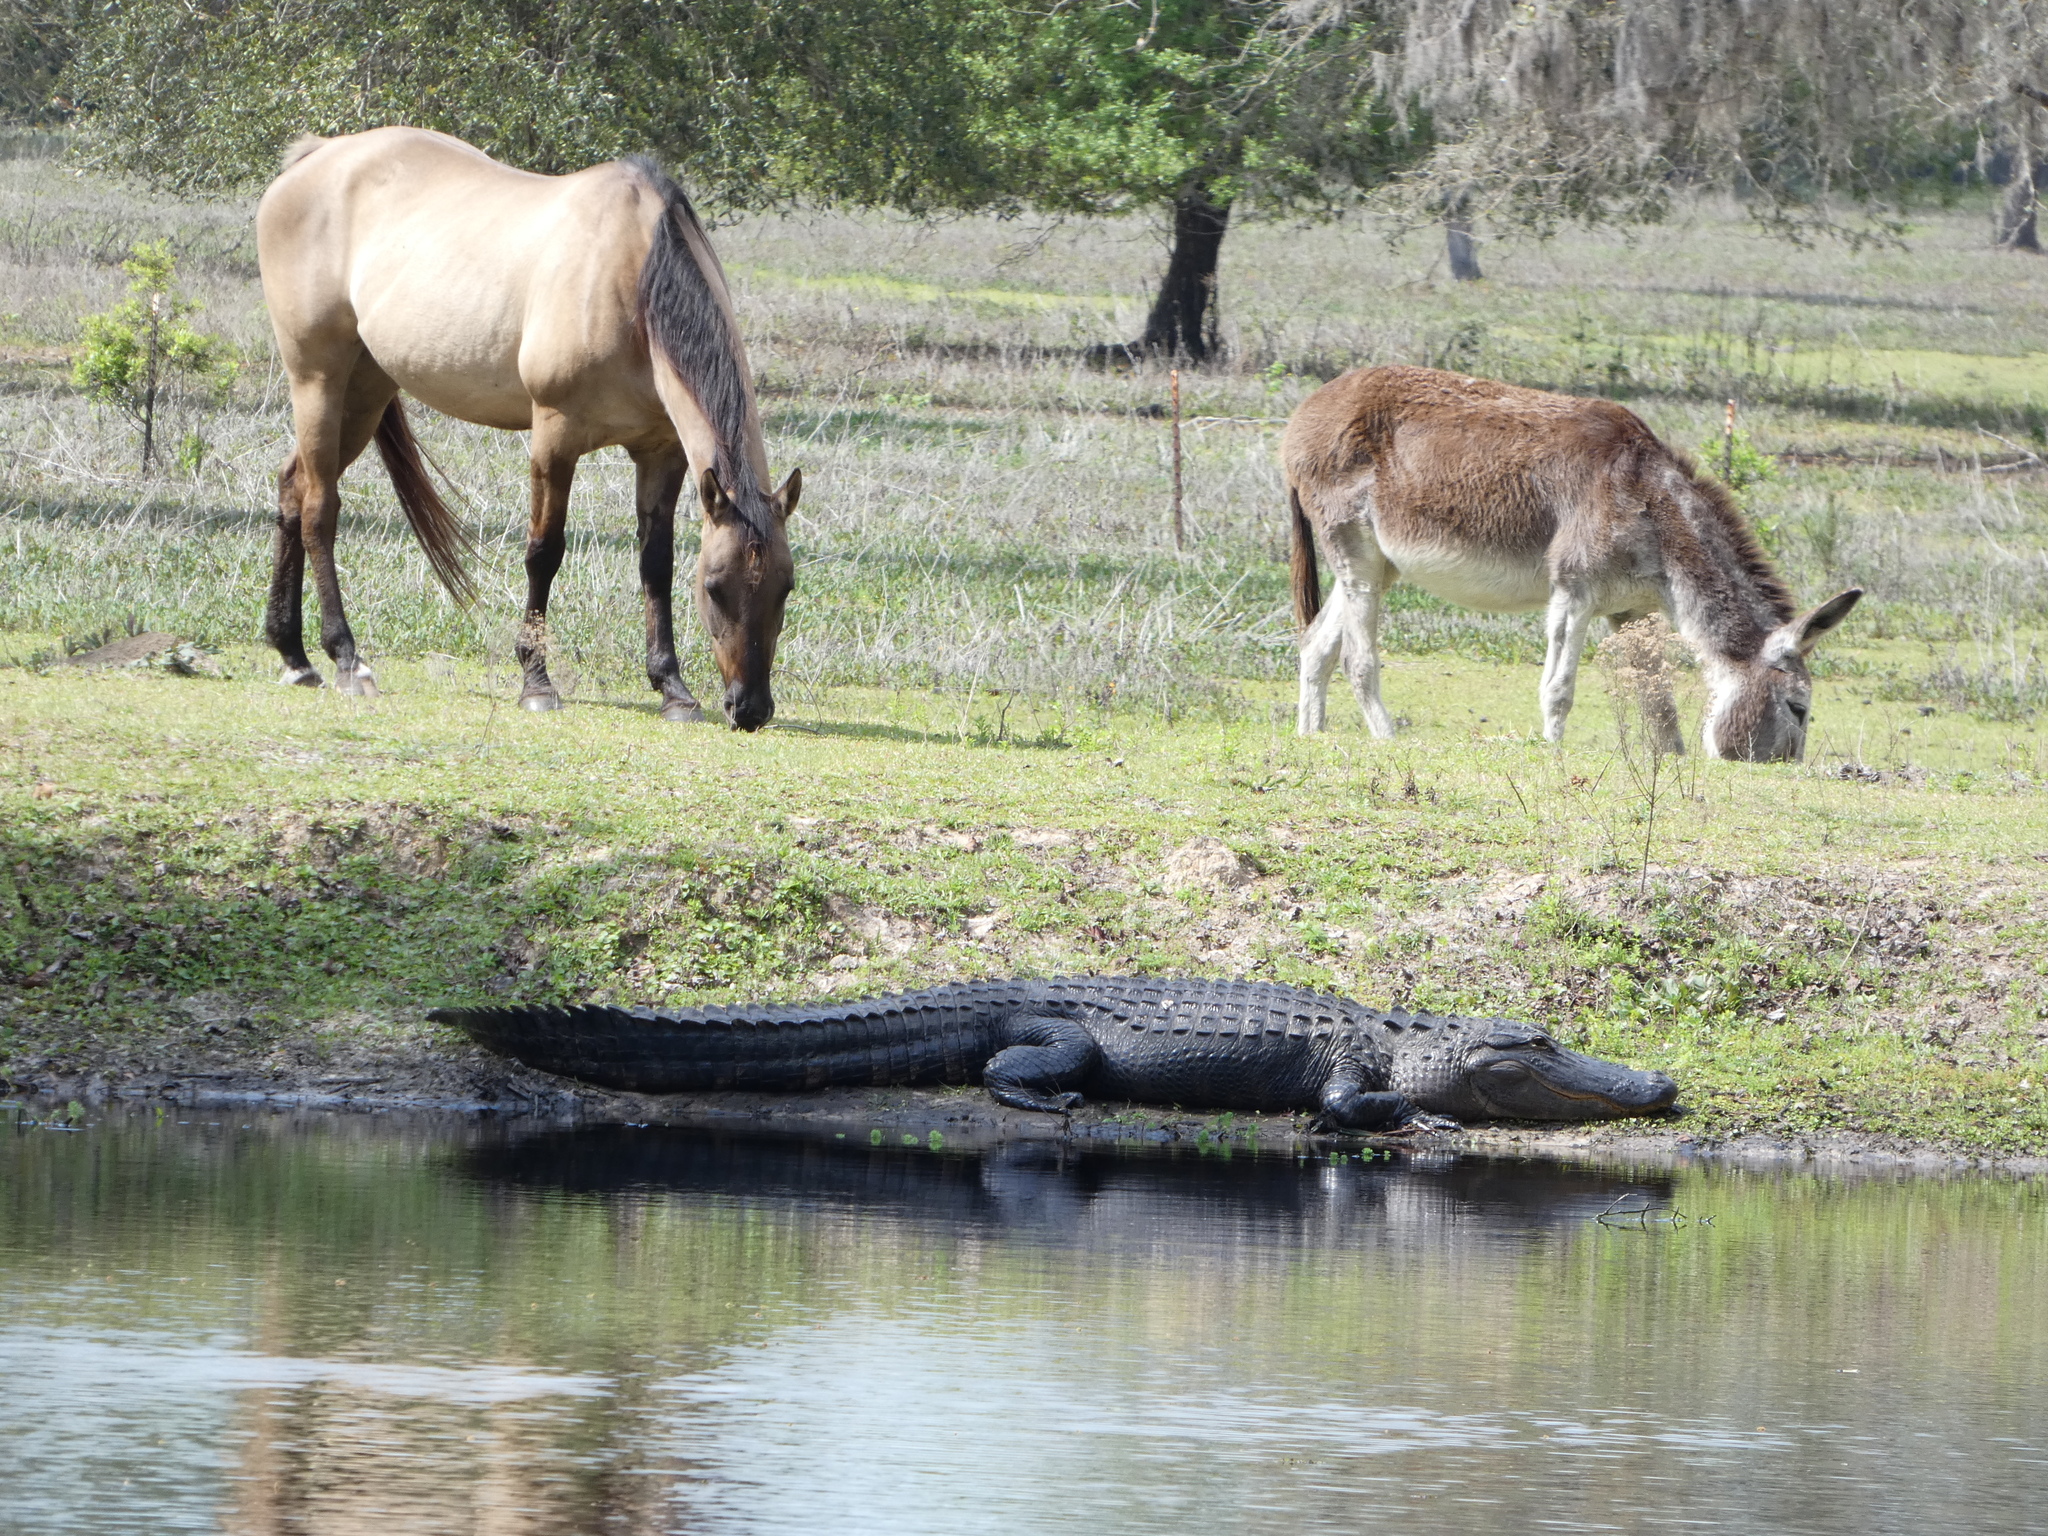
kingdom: Animalia
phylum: Chordata
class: Crocodylia
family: Alligatoridae
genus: Alligator
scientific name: Alligator mississippiensis
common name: American alligator
